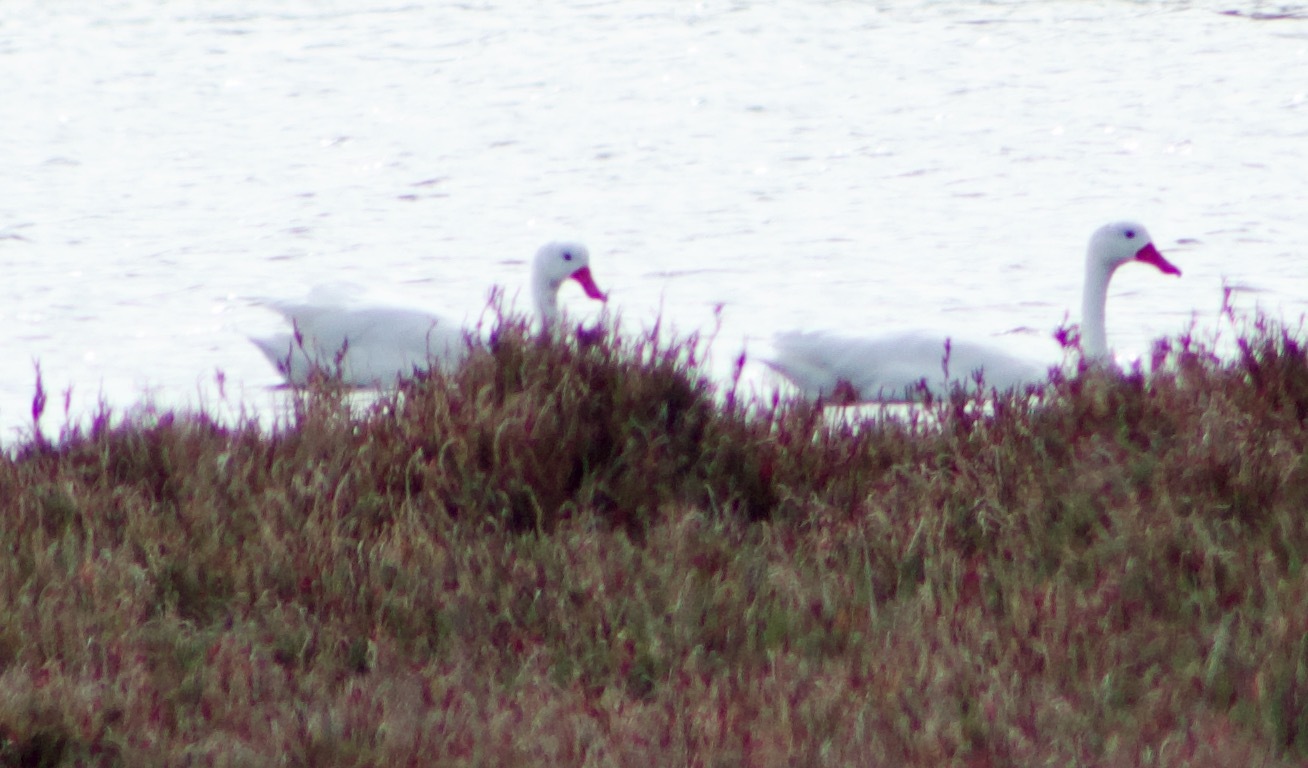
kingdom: Animalia
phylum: Chordata
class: Aves
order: Anseriformes
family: Anatidae
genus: Coscoroba
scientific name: Coscoroba coscoroba
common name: Coscoroba swan
